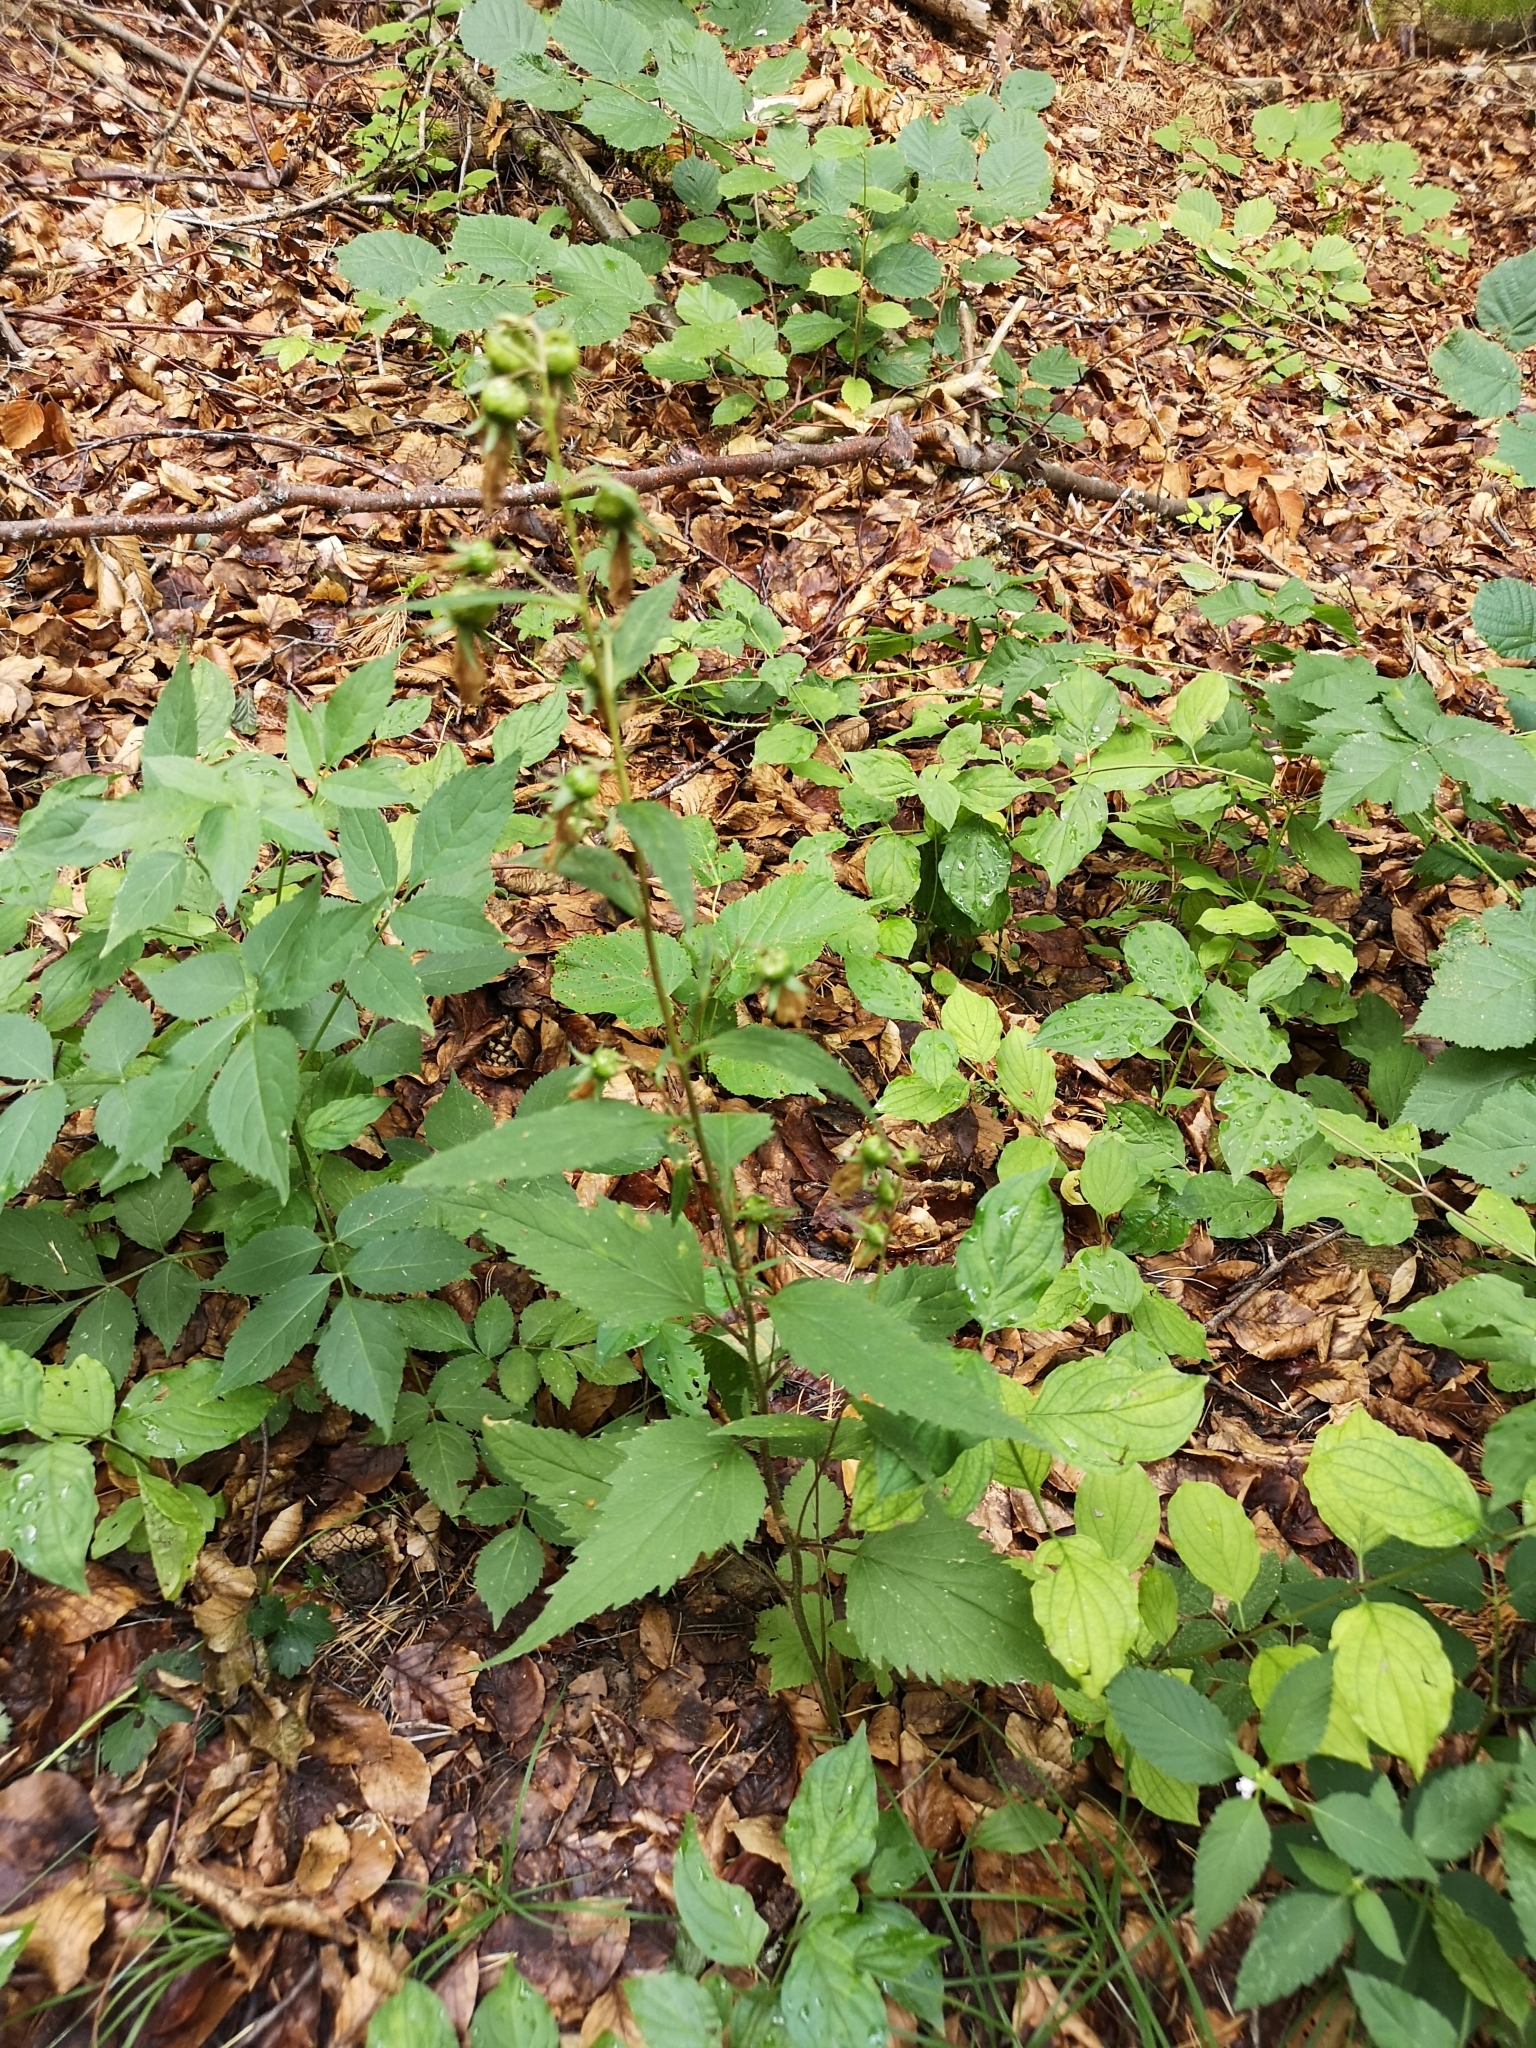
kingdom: Plantae
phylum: Tracheophyta
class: Magnoliopsida
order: Asterales
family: Campanulaceae
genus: Campanula
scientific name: Campanula trachelium
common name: Nettle-leaved bellflower
